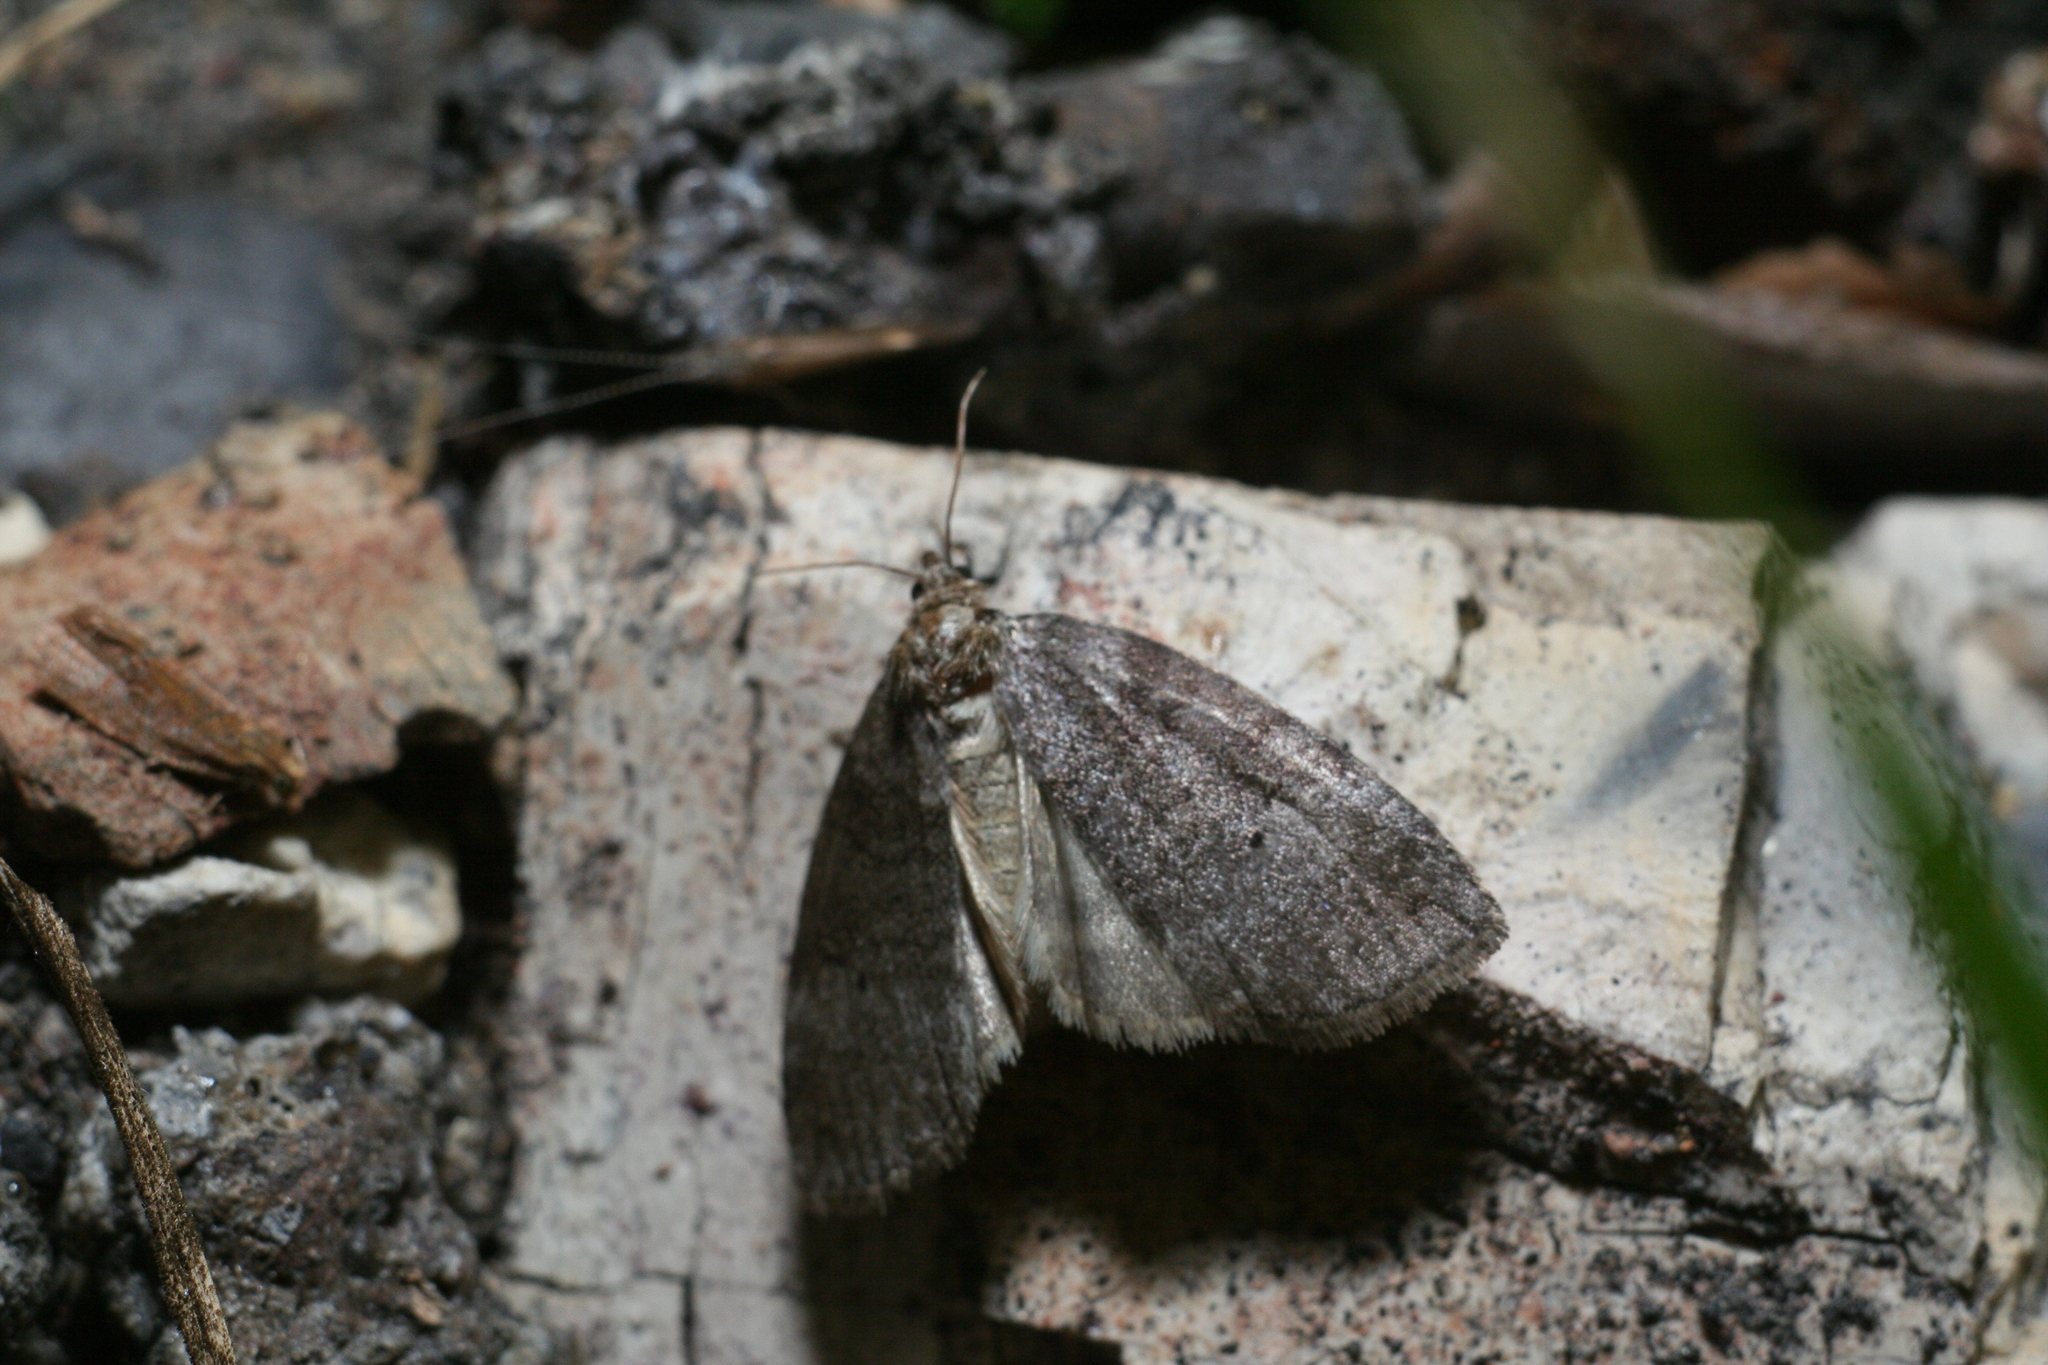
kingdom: Animalia
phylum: Arthropoda
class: Insecta
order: Lepidoptera
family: Drepanidae
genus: Ochropacha
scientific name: Ochropacha duplaris
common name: Common lutestring
